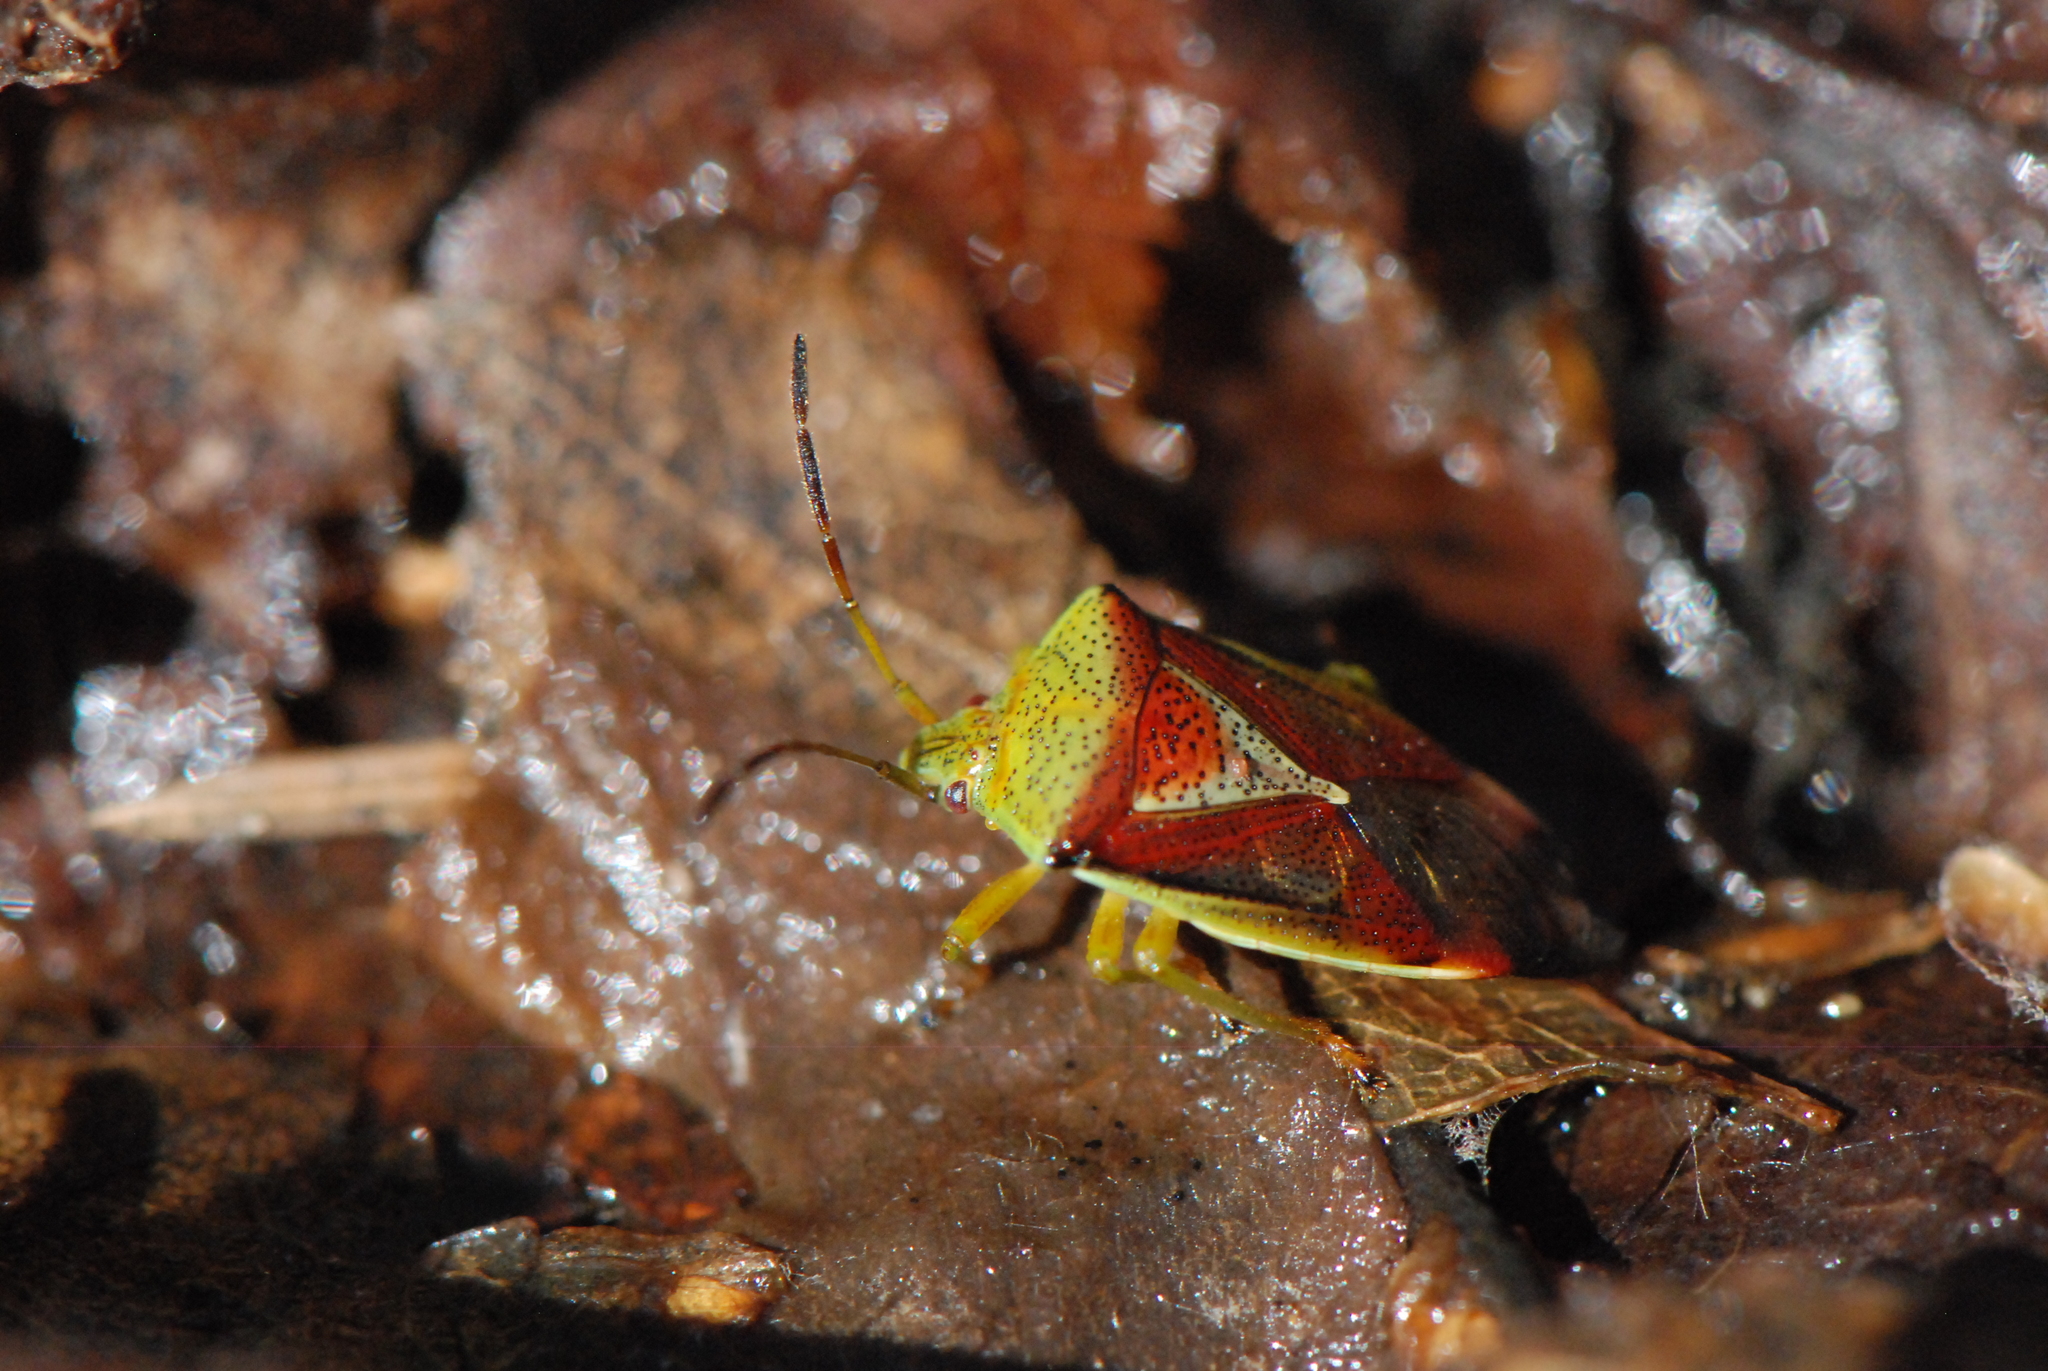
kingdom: Animalia
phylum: Arthropoda
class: Insecta
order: Hemiptera
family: Acanthosomatidae
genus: Elasmostethus
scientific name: Elasmostethus interstinctus
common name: Birch shieldbug
